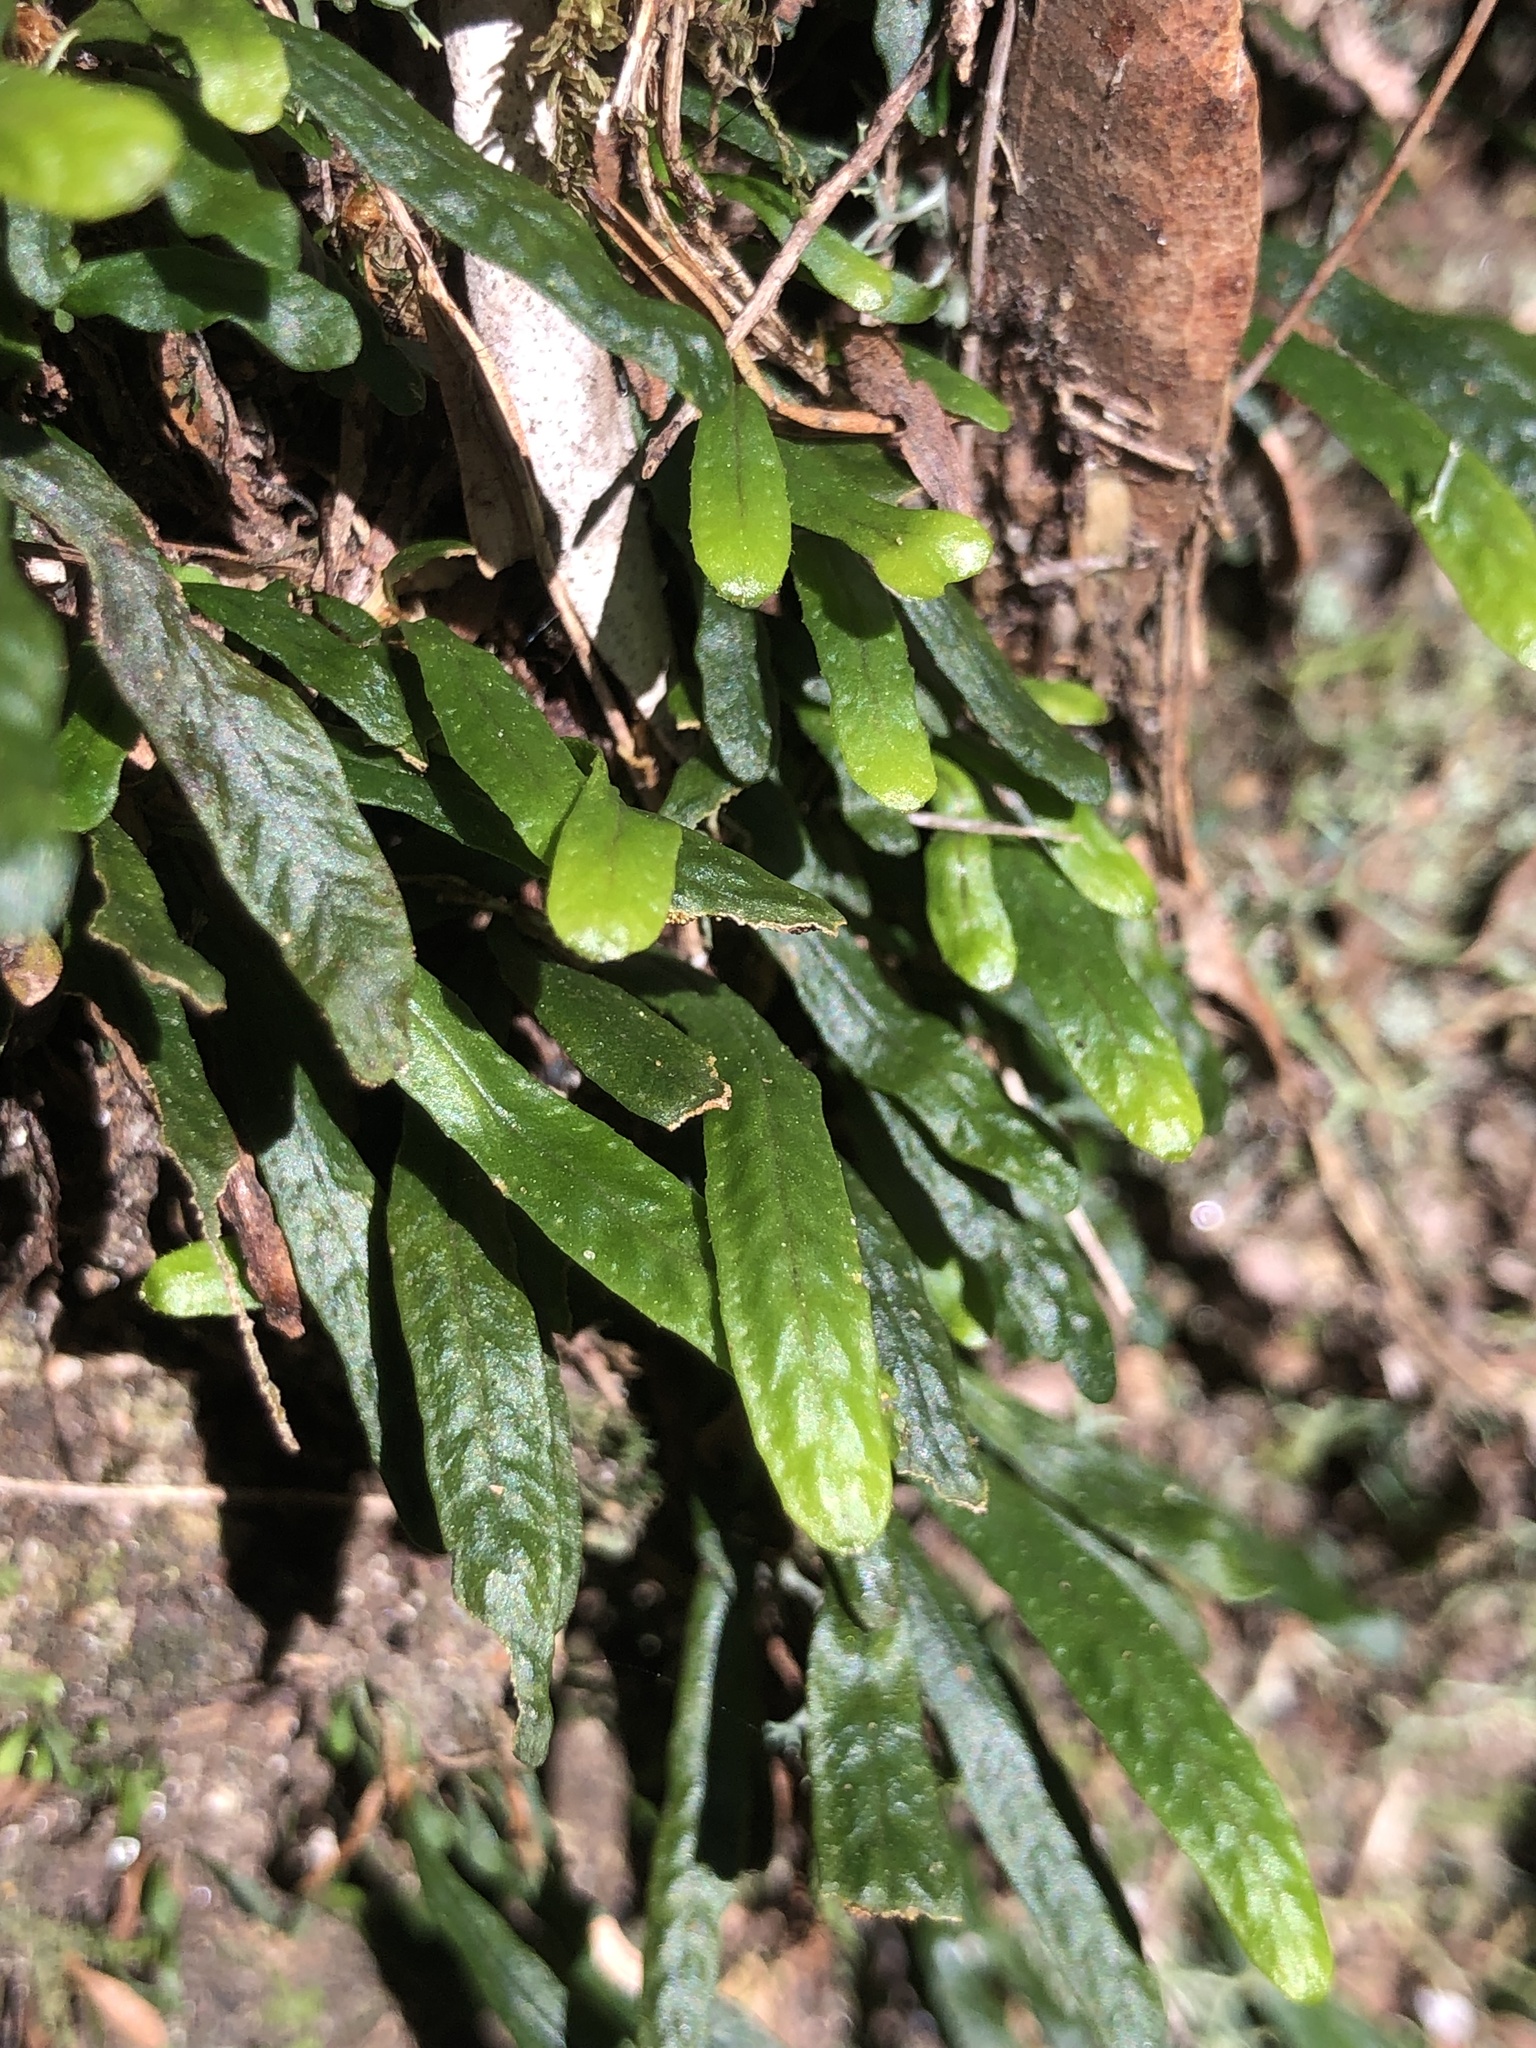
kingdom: Plantae
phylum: Tracheophyta
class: Polypodiopsida
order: Polypodiales
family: Polypodiaceae
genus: Grammitis
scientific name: Grammitis stenophylla
